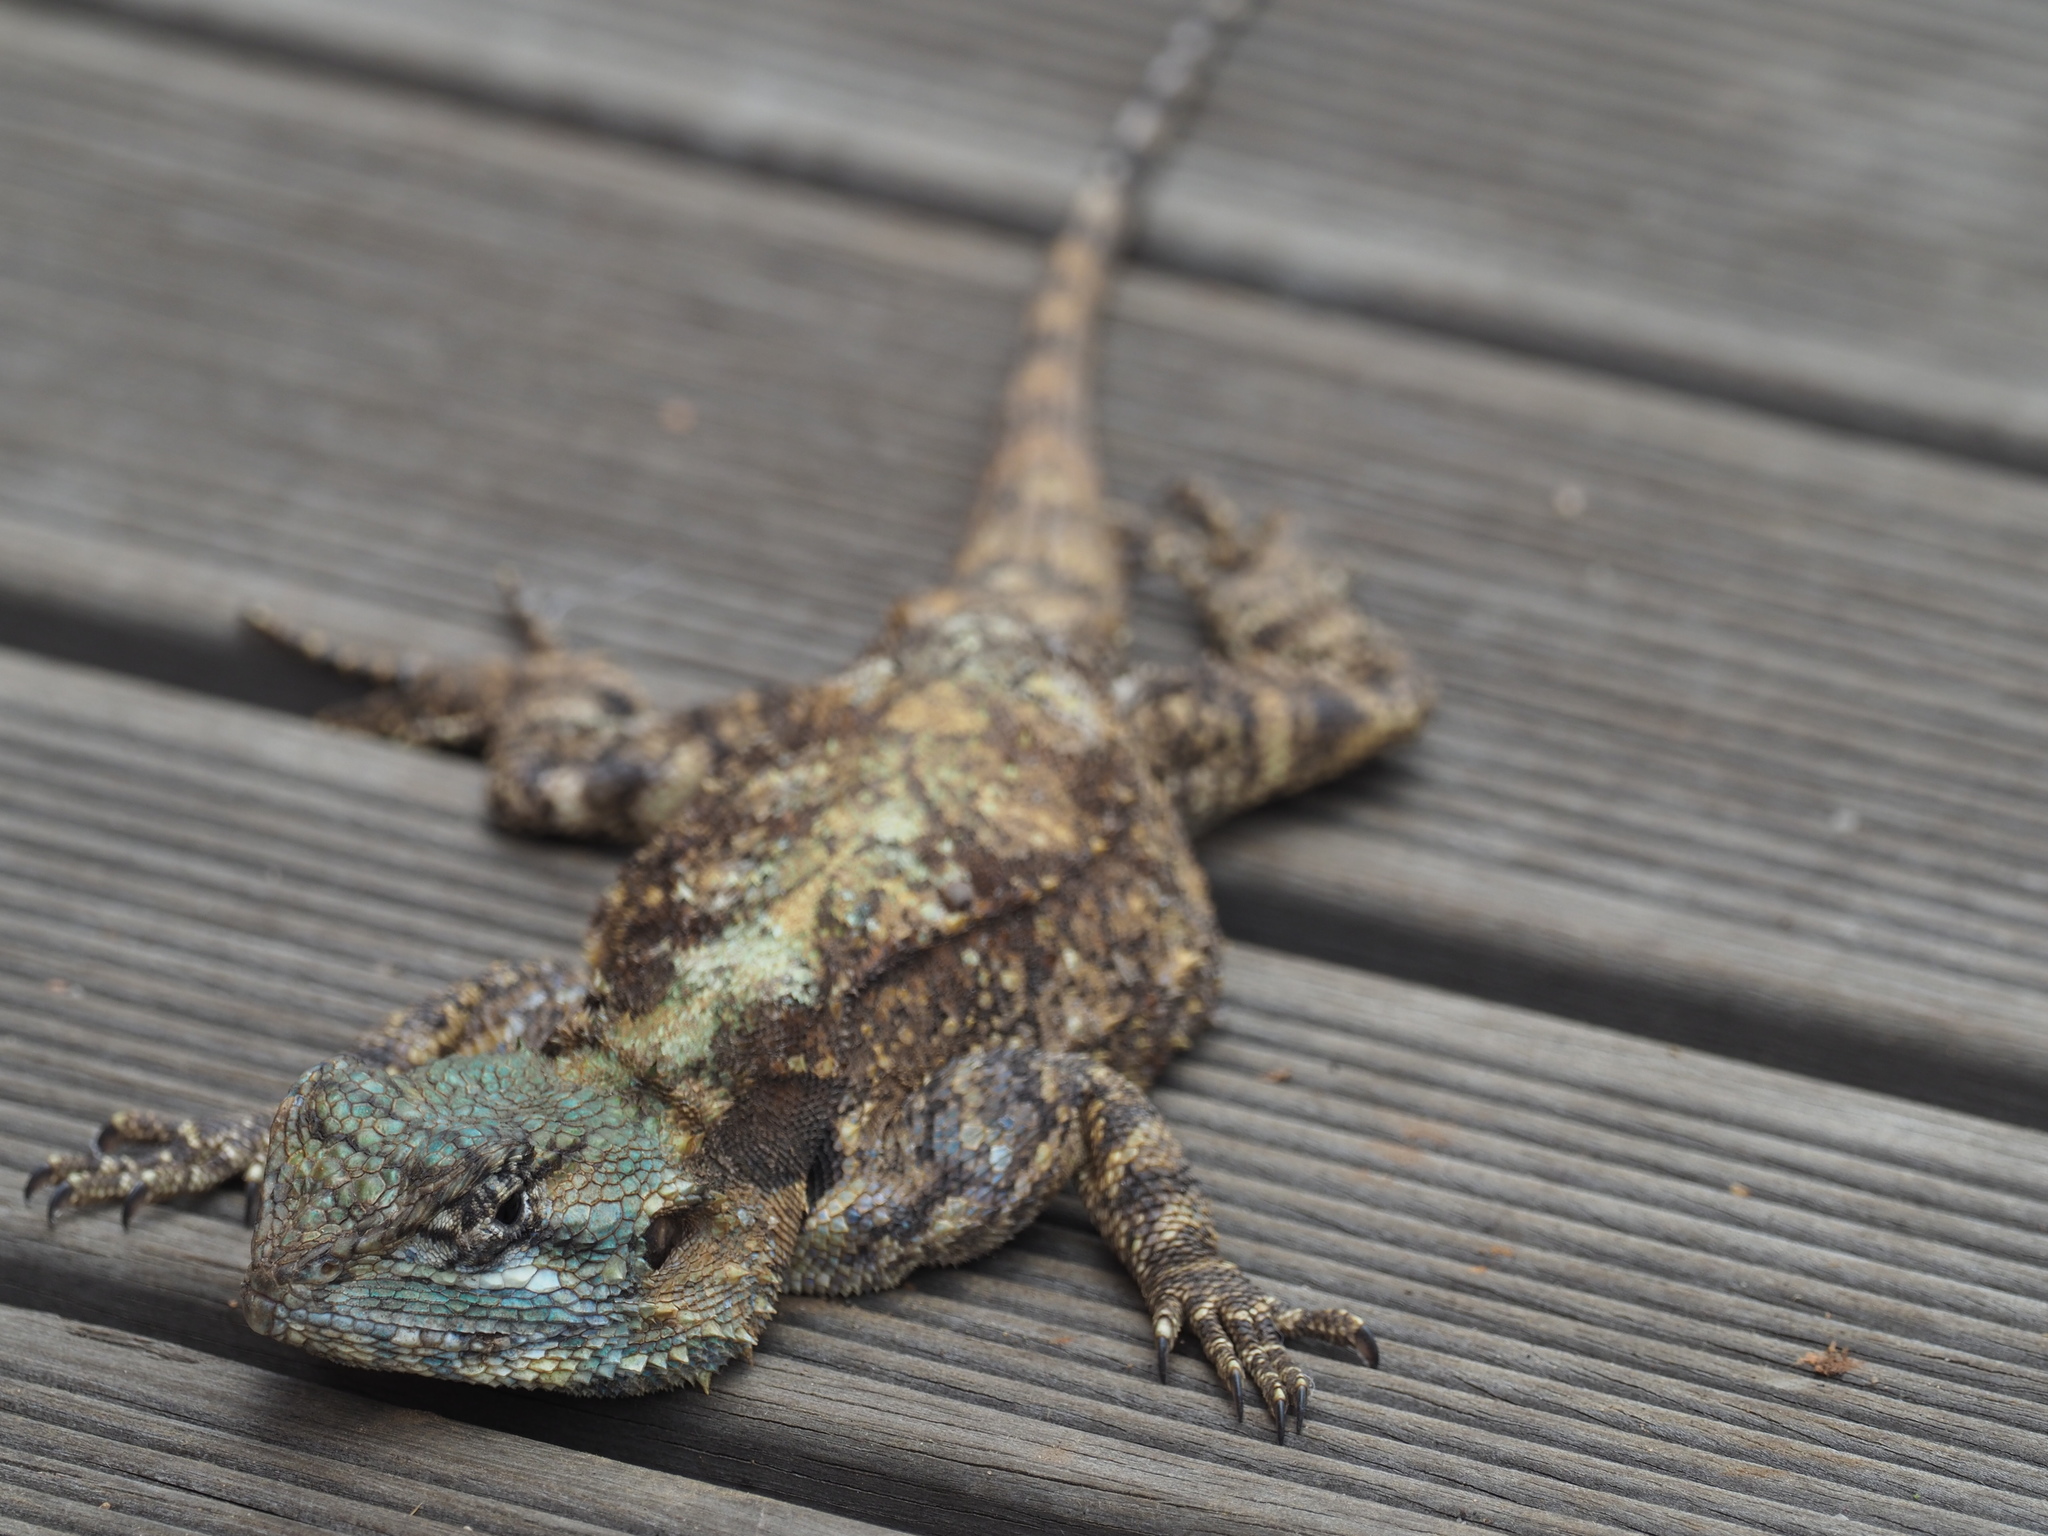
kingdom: Animalia
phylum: Chordata
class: Squamata
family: Agamidae
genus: Acanthocercus
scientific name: Acanthocercus atricollis
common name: Southern tree agama
